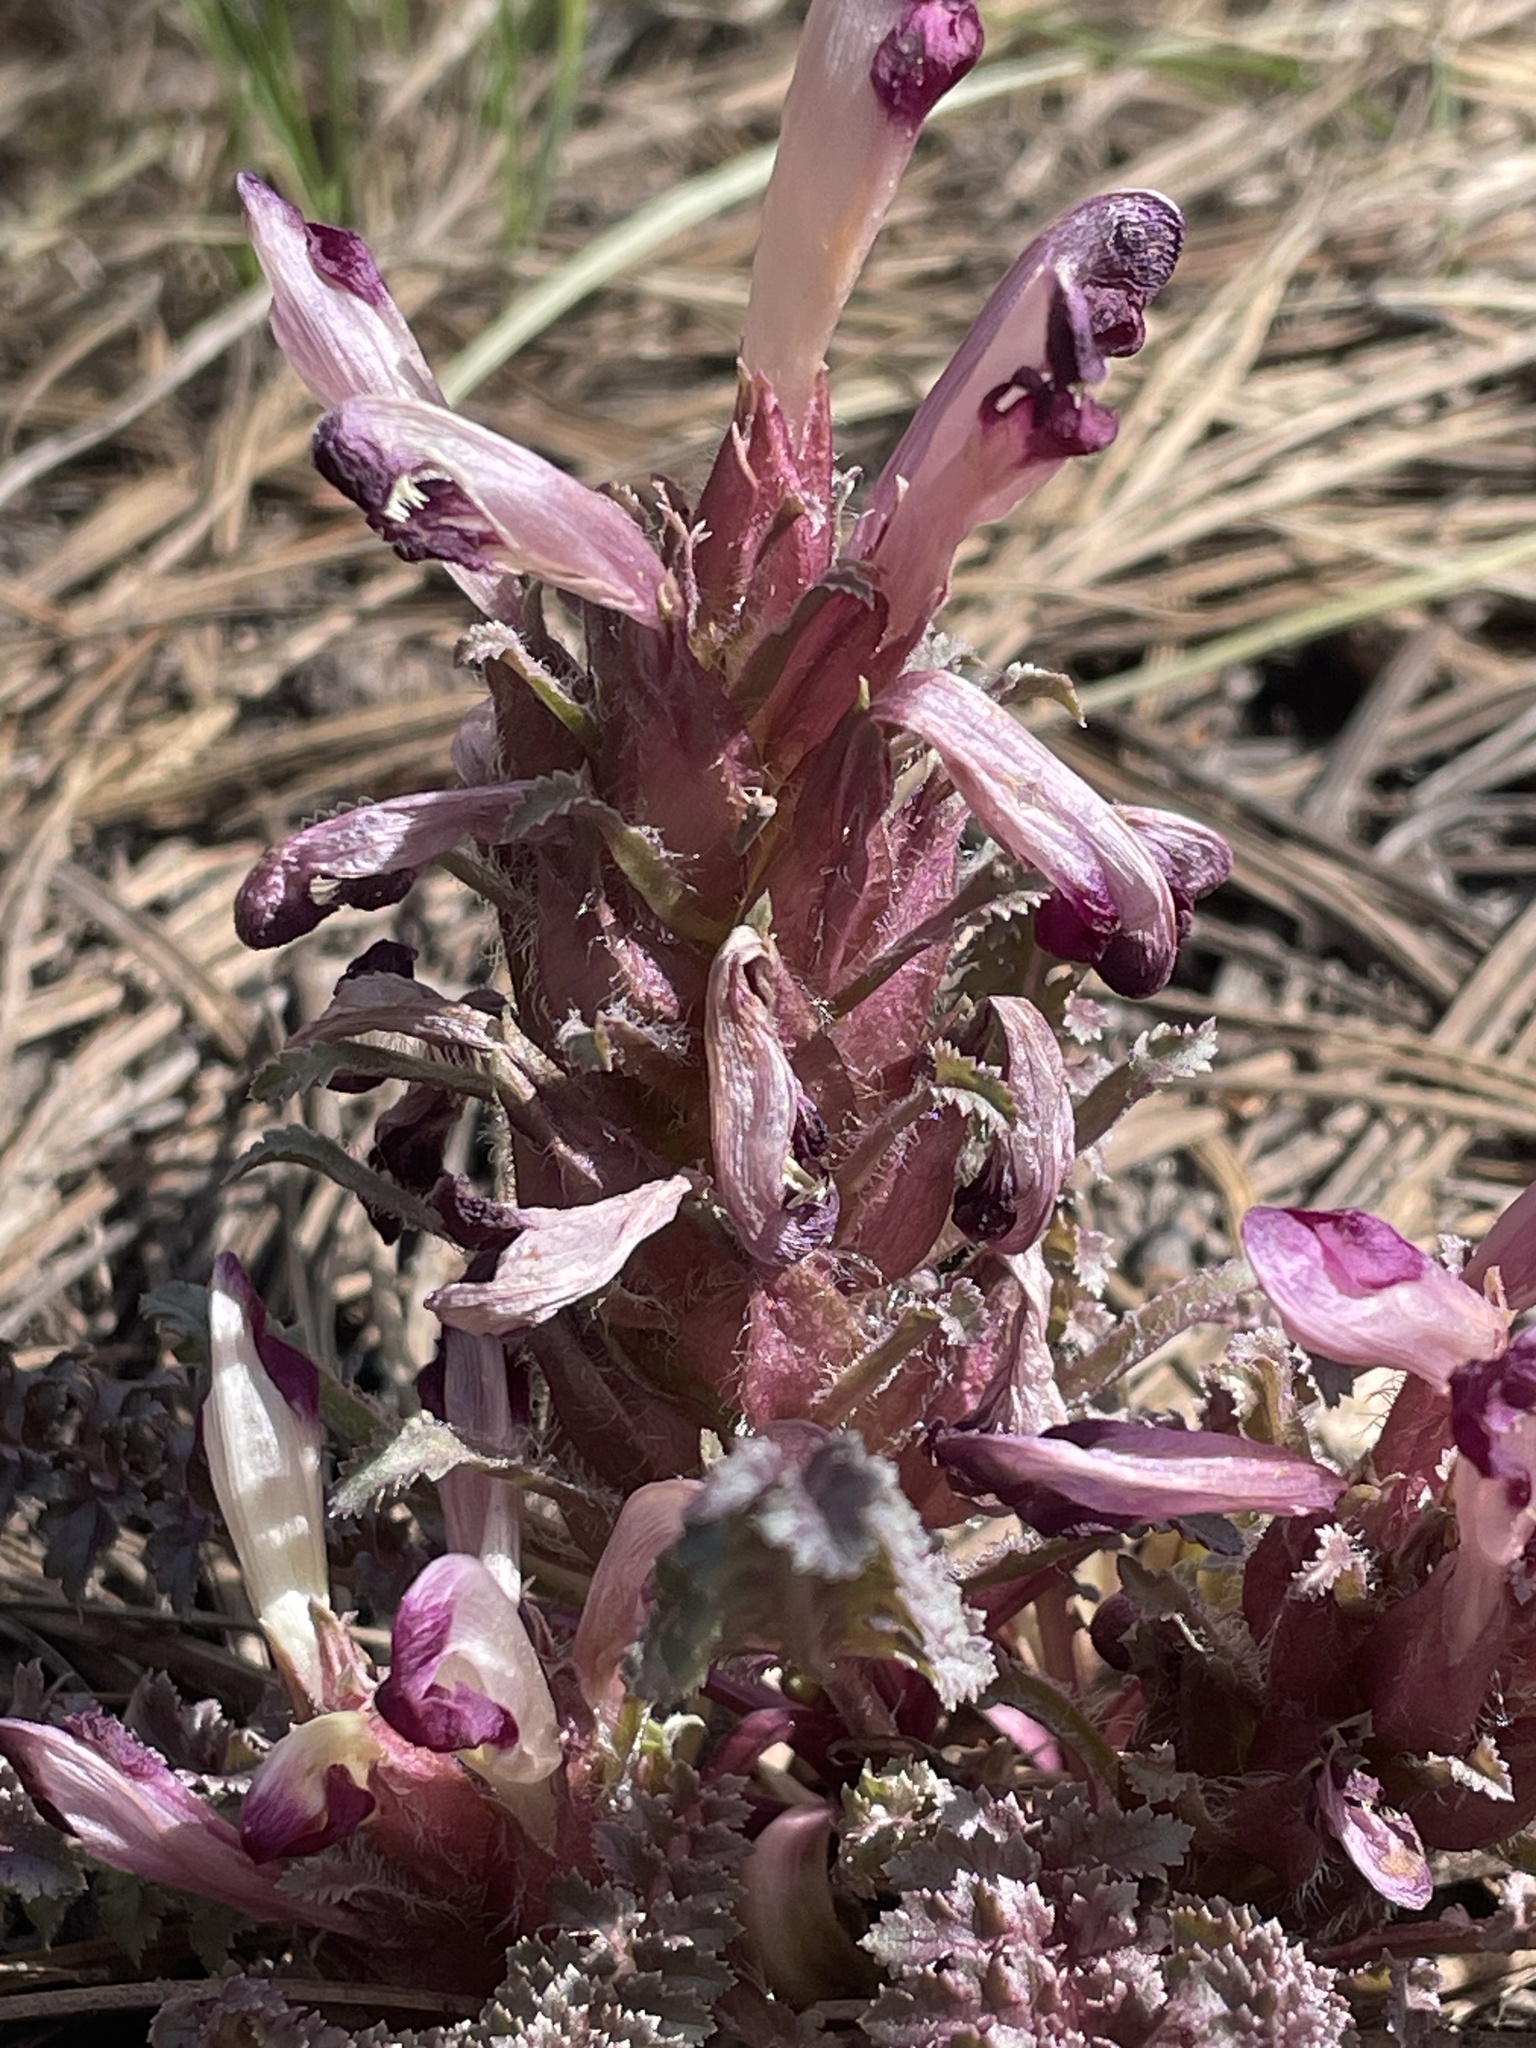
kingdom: Plantae
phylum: Tracheophyta
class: Magnoliopsida
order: Lamiales
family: Orobanchaceae
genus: Pedicularis
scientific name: Pedicularis centranthera
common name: Dwarf lousewort
